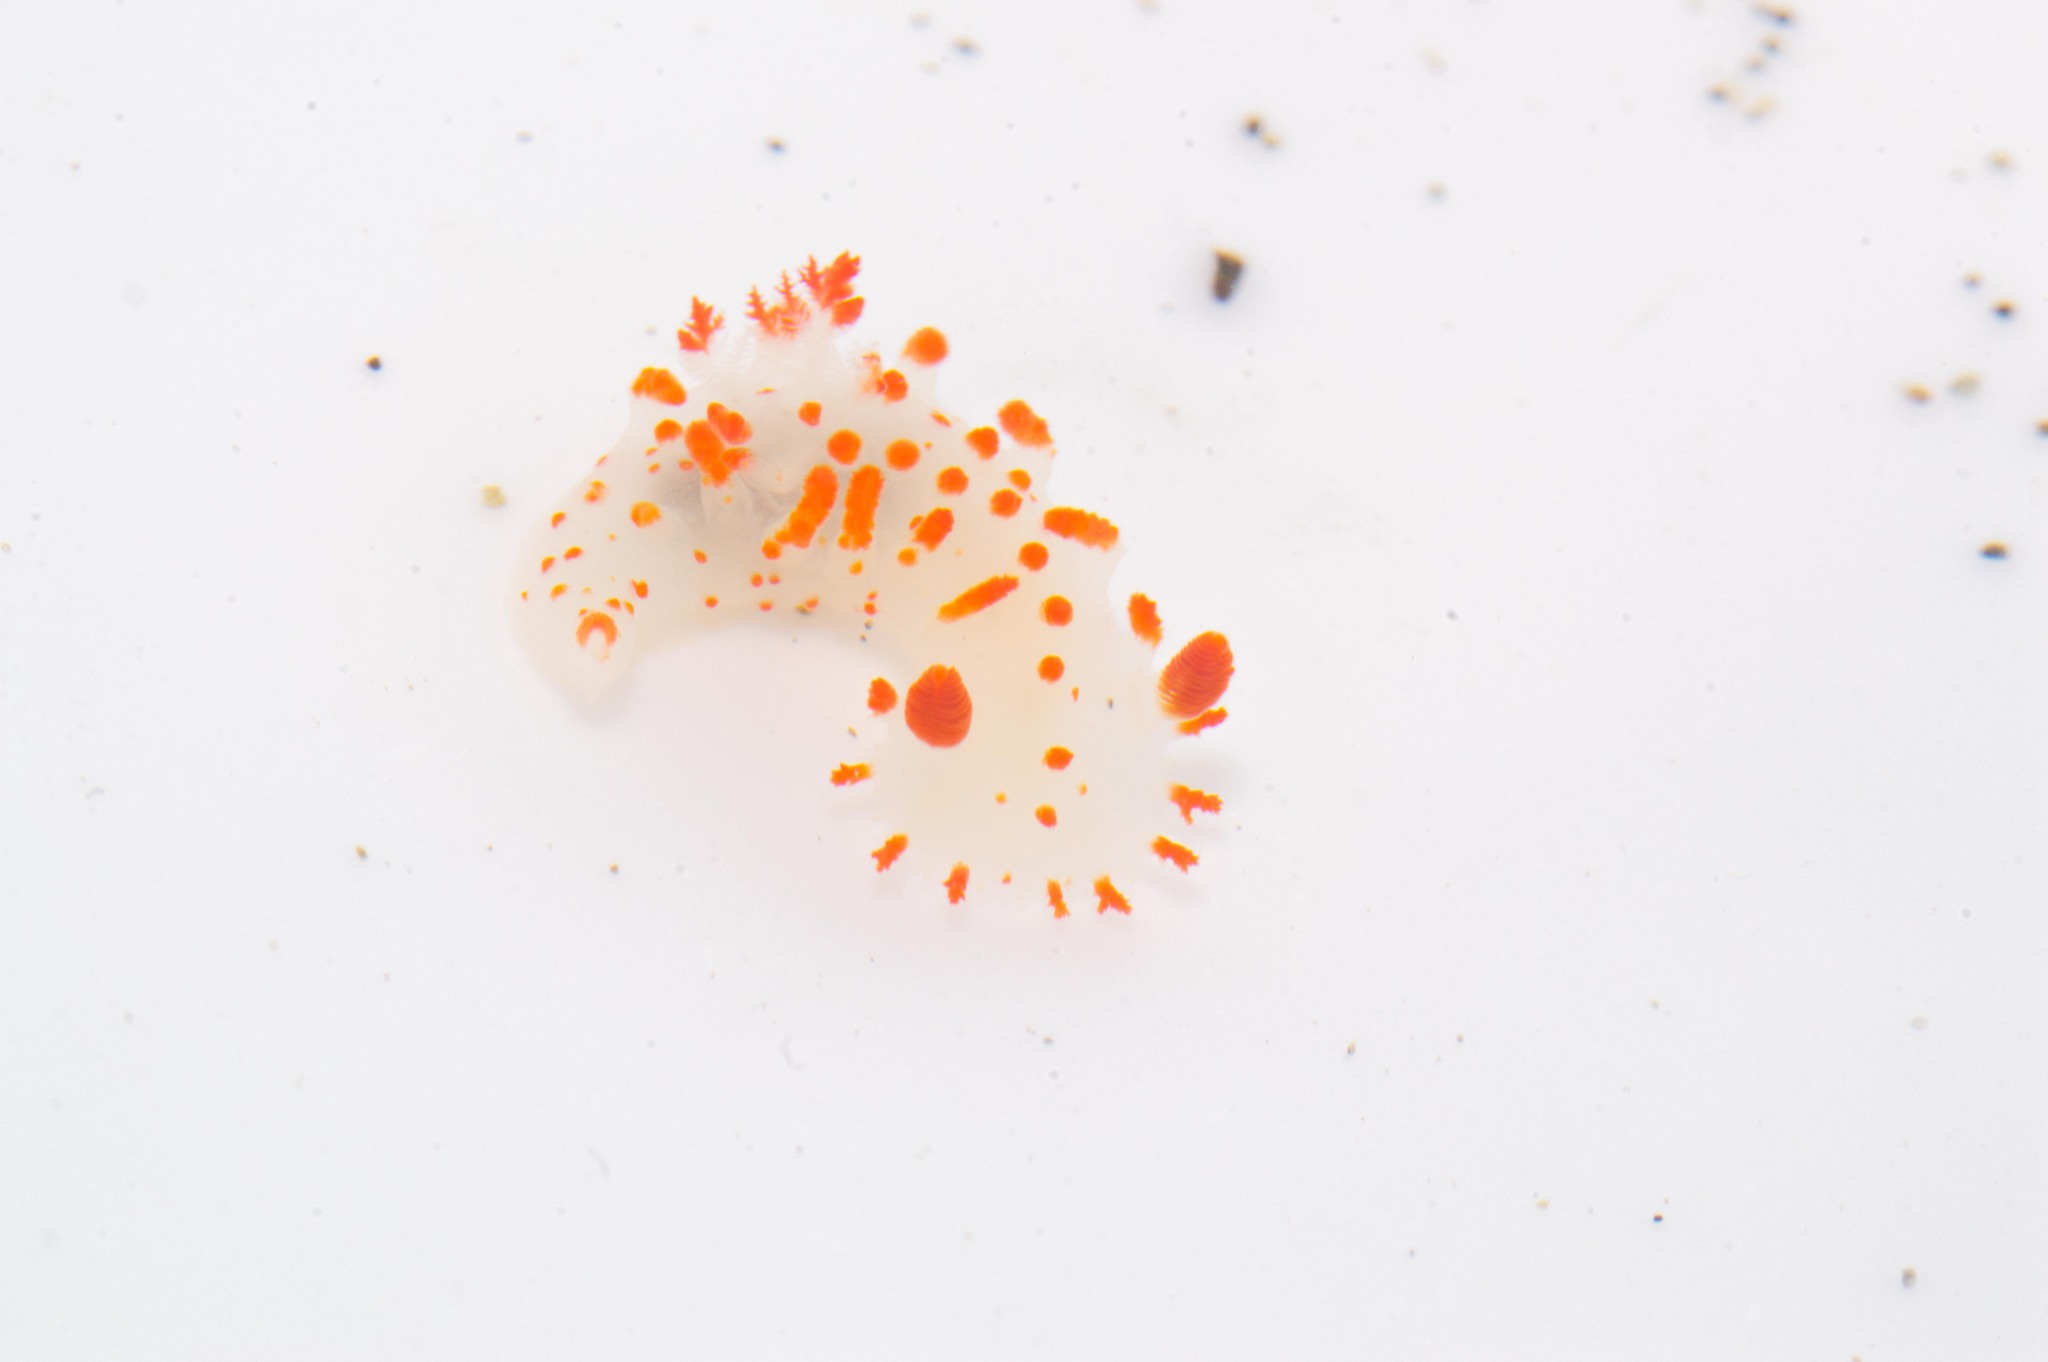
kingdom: Animalia
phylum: Mollusca
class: Gastropoda
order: Nudibranchia
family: Polyceridae
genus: Triopha
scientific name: Triopha catalinae
